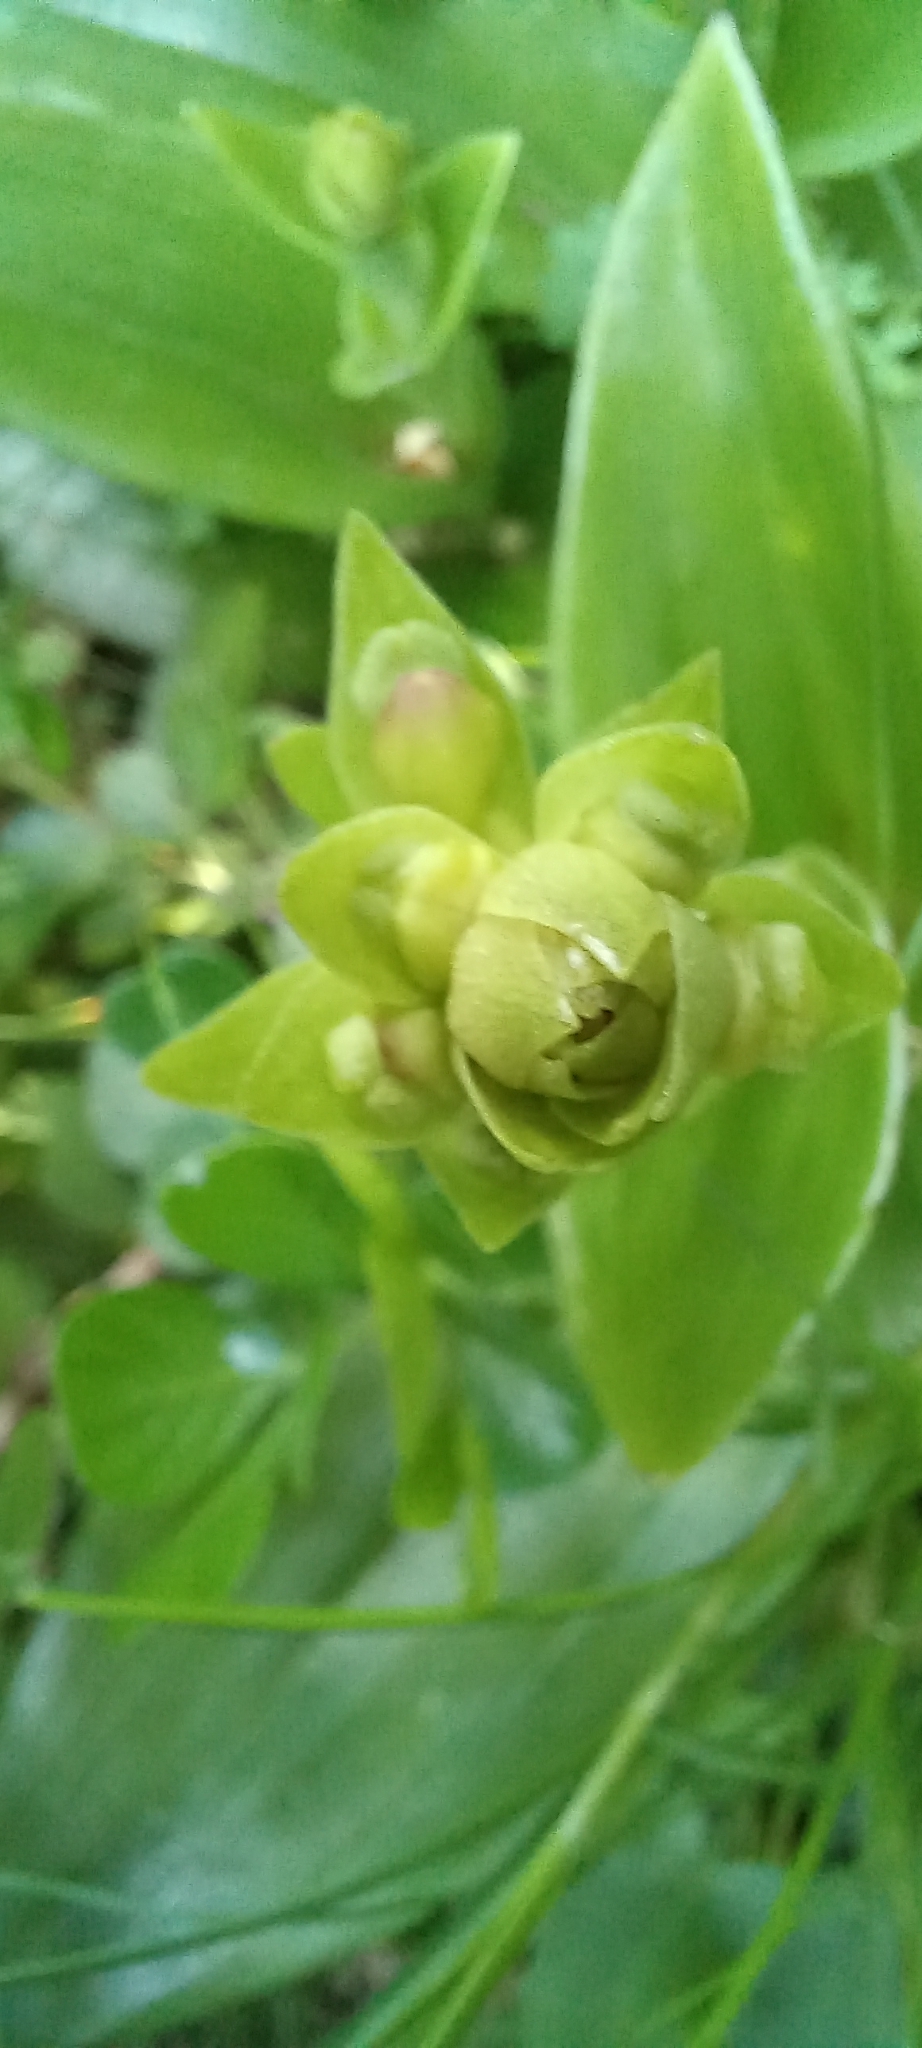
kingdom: Plantae
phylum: Tracheophyta
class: Liliopsida
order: Asparagales
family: Orchidaceae
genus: Satyrium
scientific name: Satyrium odorum
